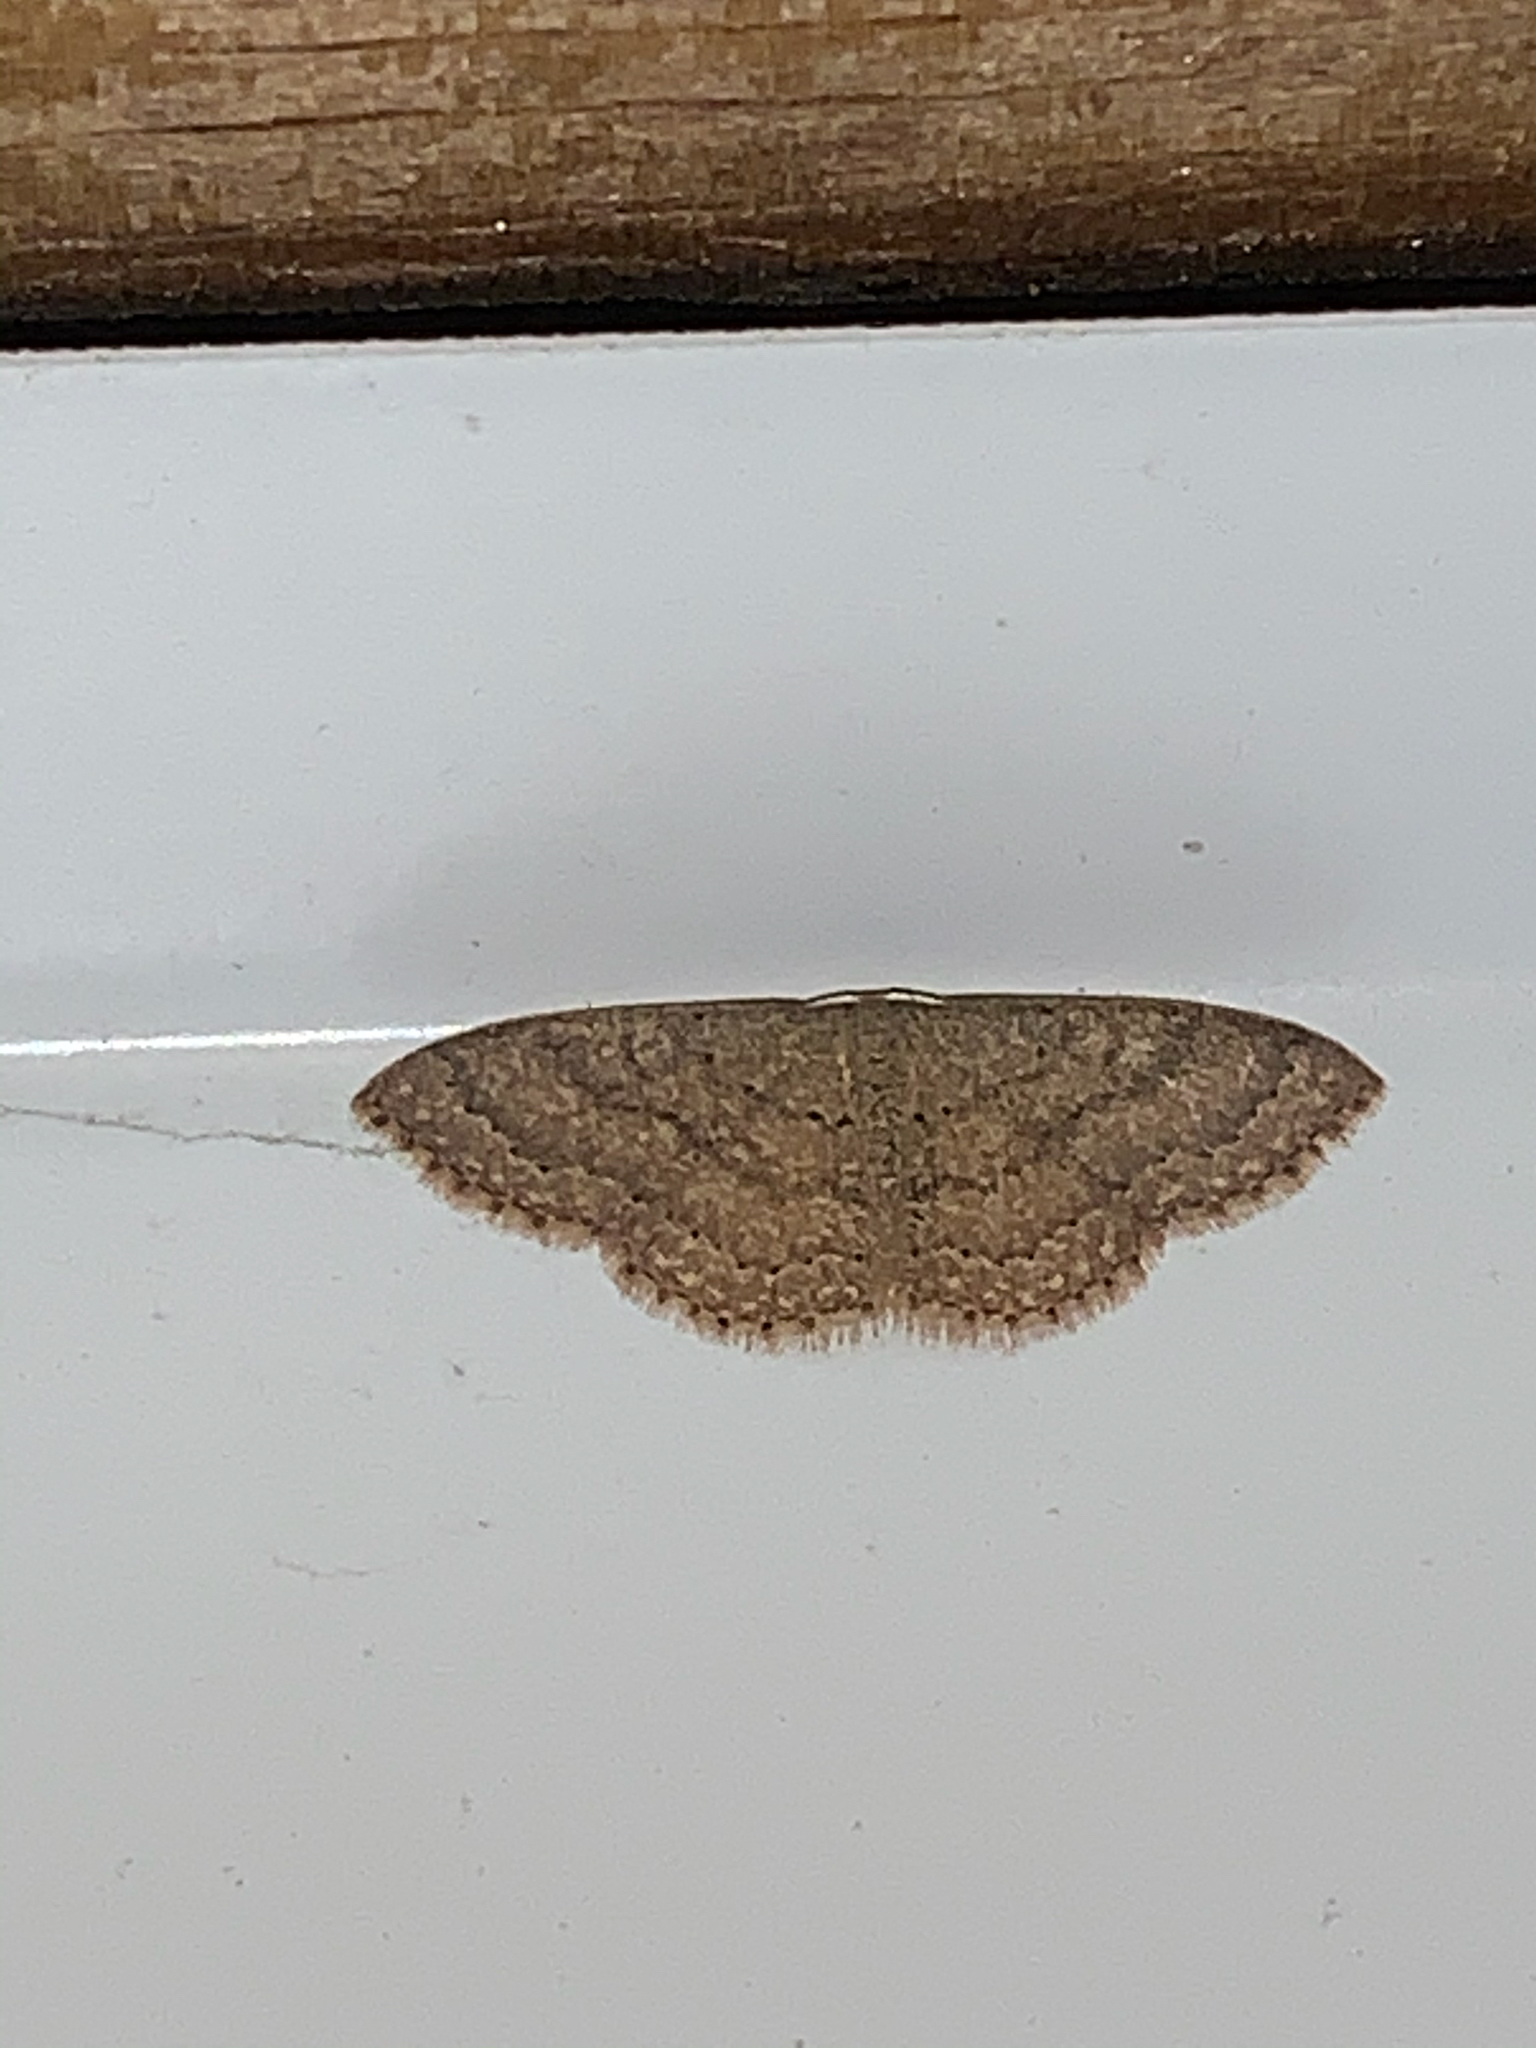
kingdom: Animalia
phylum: Arthropoda
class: Insecta
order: Lepidoptera
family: Geometridae
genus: Pleuroprucha
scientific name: Pleuroprucha insulsaria
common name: Common tan wave
